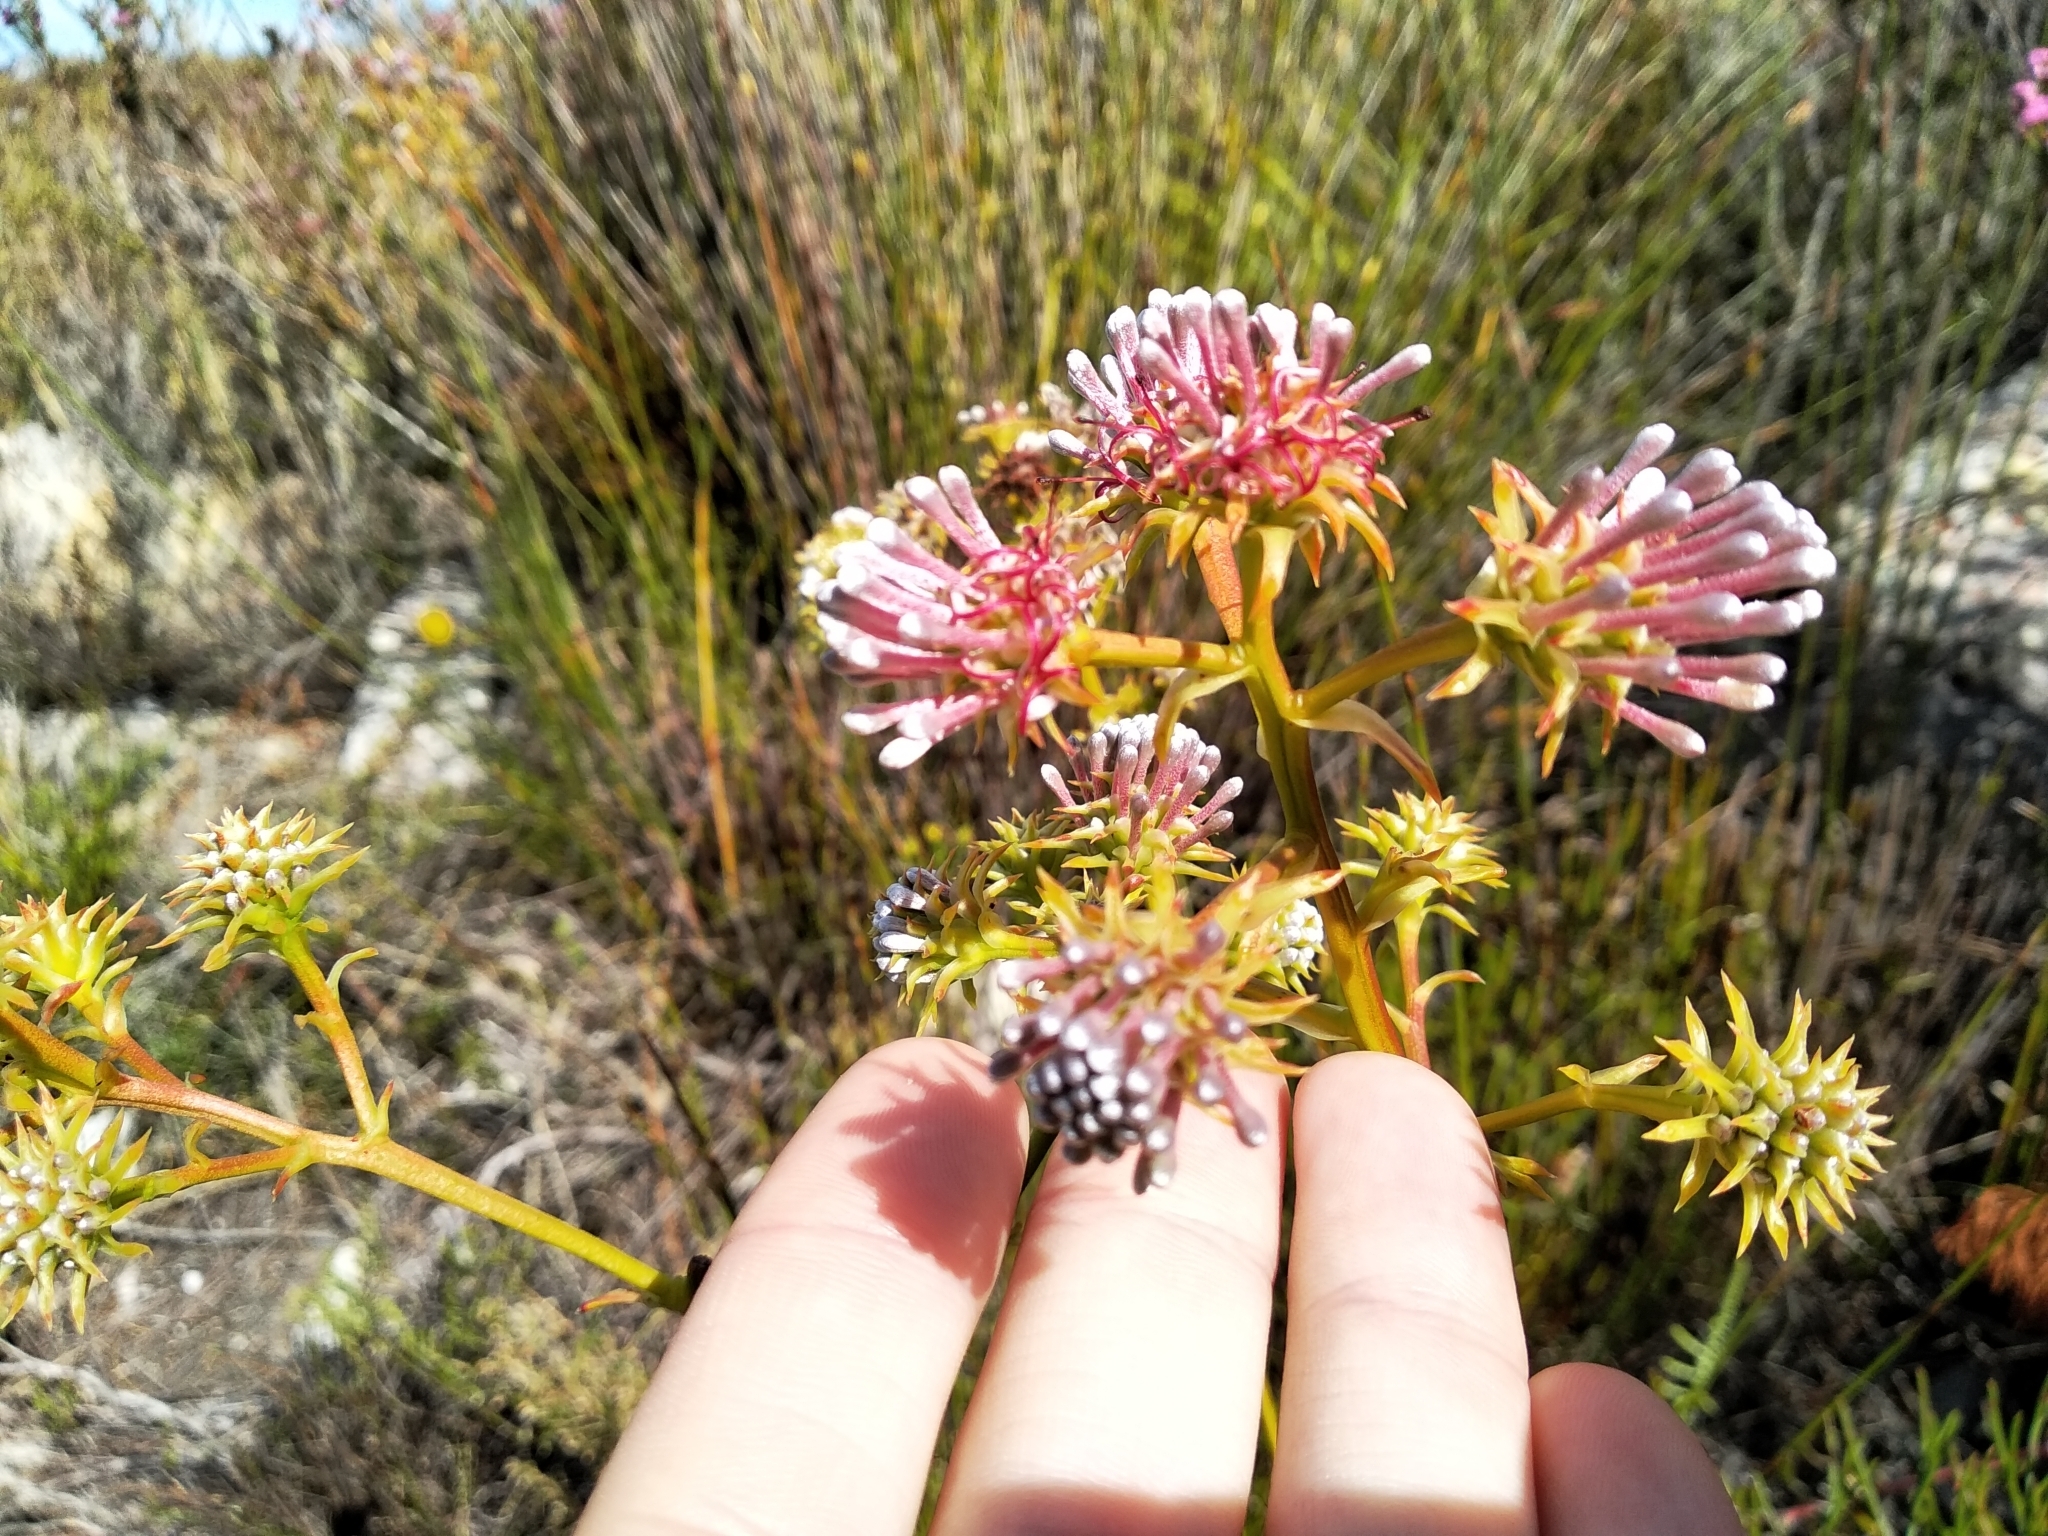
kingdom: Plantae
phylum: Tracheophyta
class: Magnoliopsida
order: Proteales
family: Proteaceae
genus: Serruria
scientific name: Serruria elongata
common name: Long-stalk spiderhead
